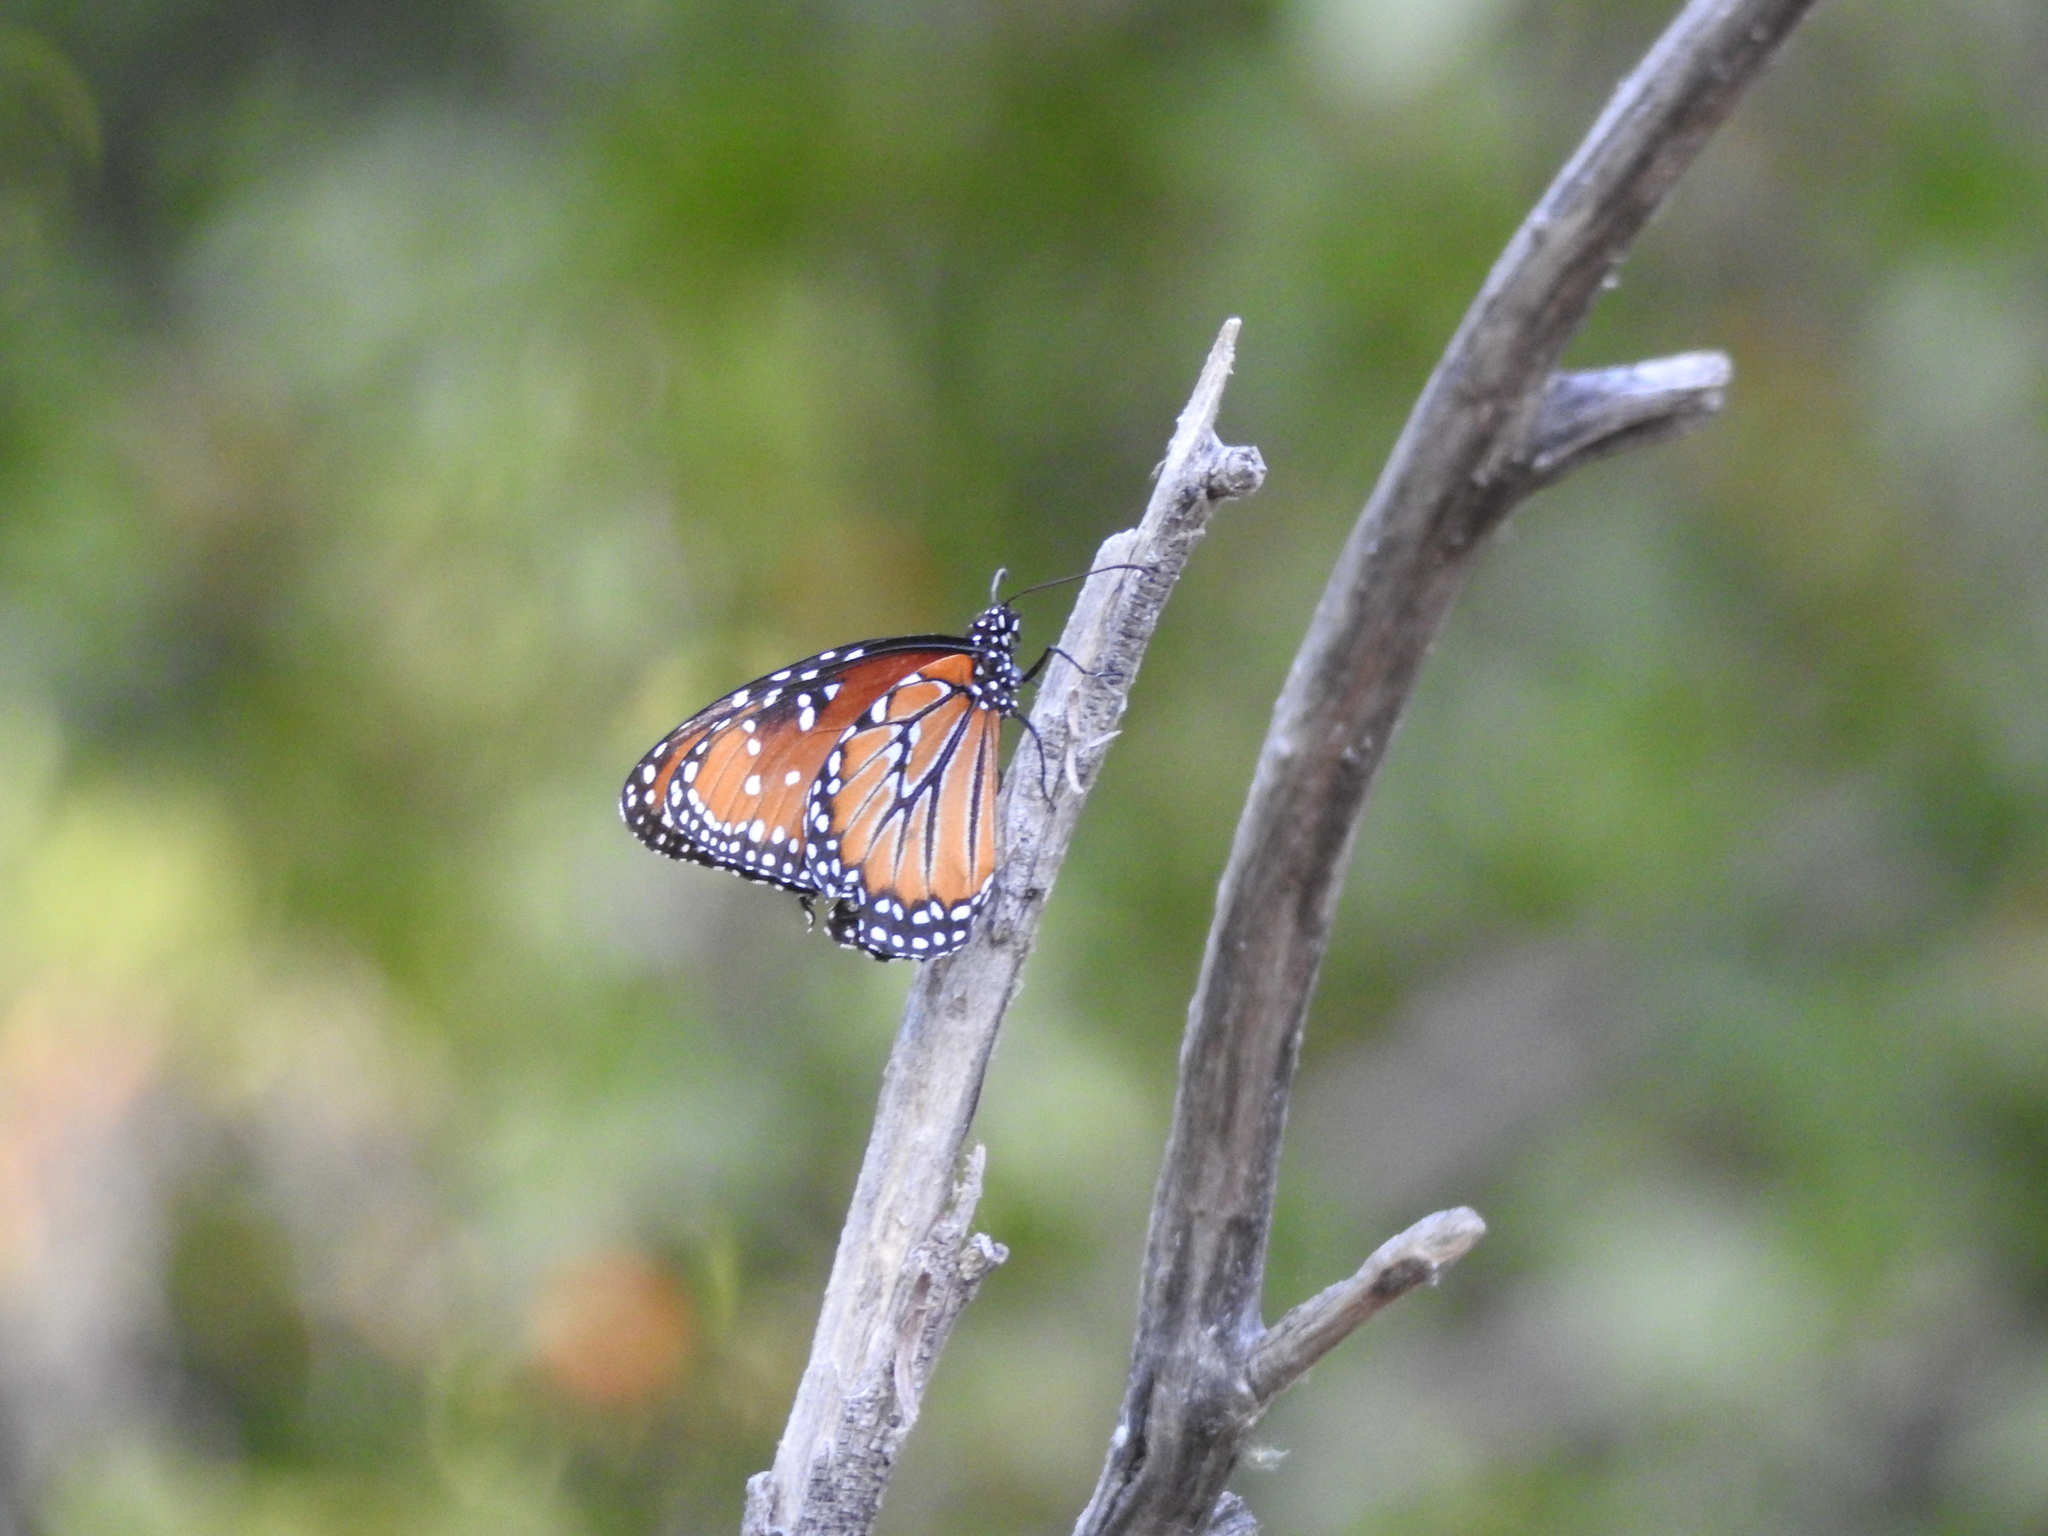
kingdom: Animalia
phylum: Arthropoda
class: Insecta
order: Lepidoptera
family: Nymphalidae
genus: Danaus
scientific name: Danaus gilippus
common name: Queen
